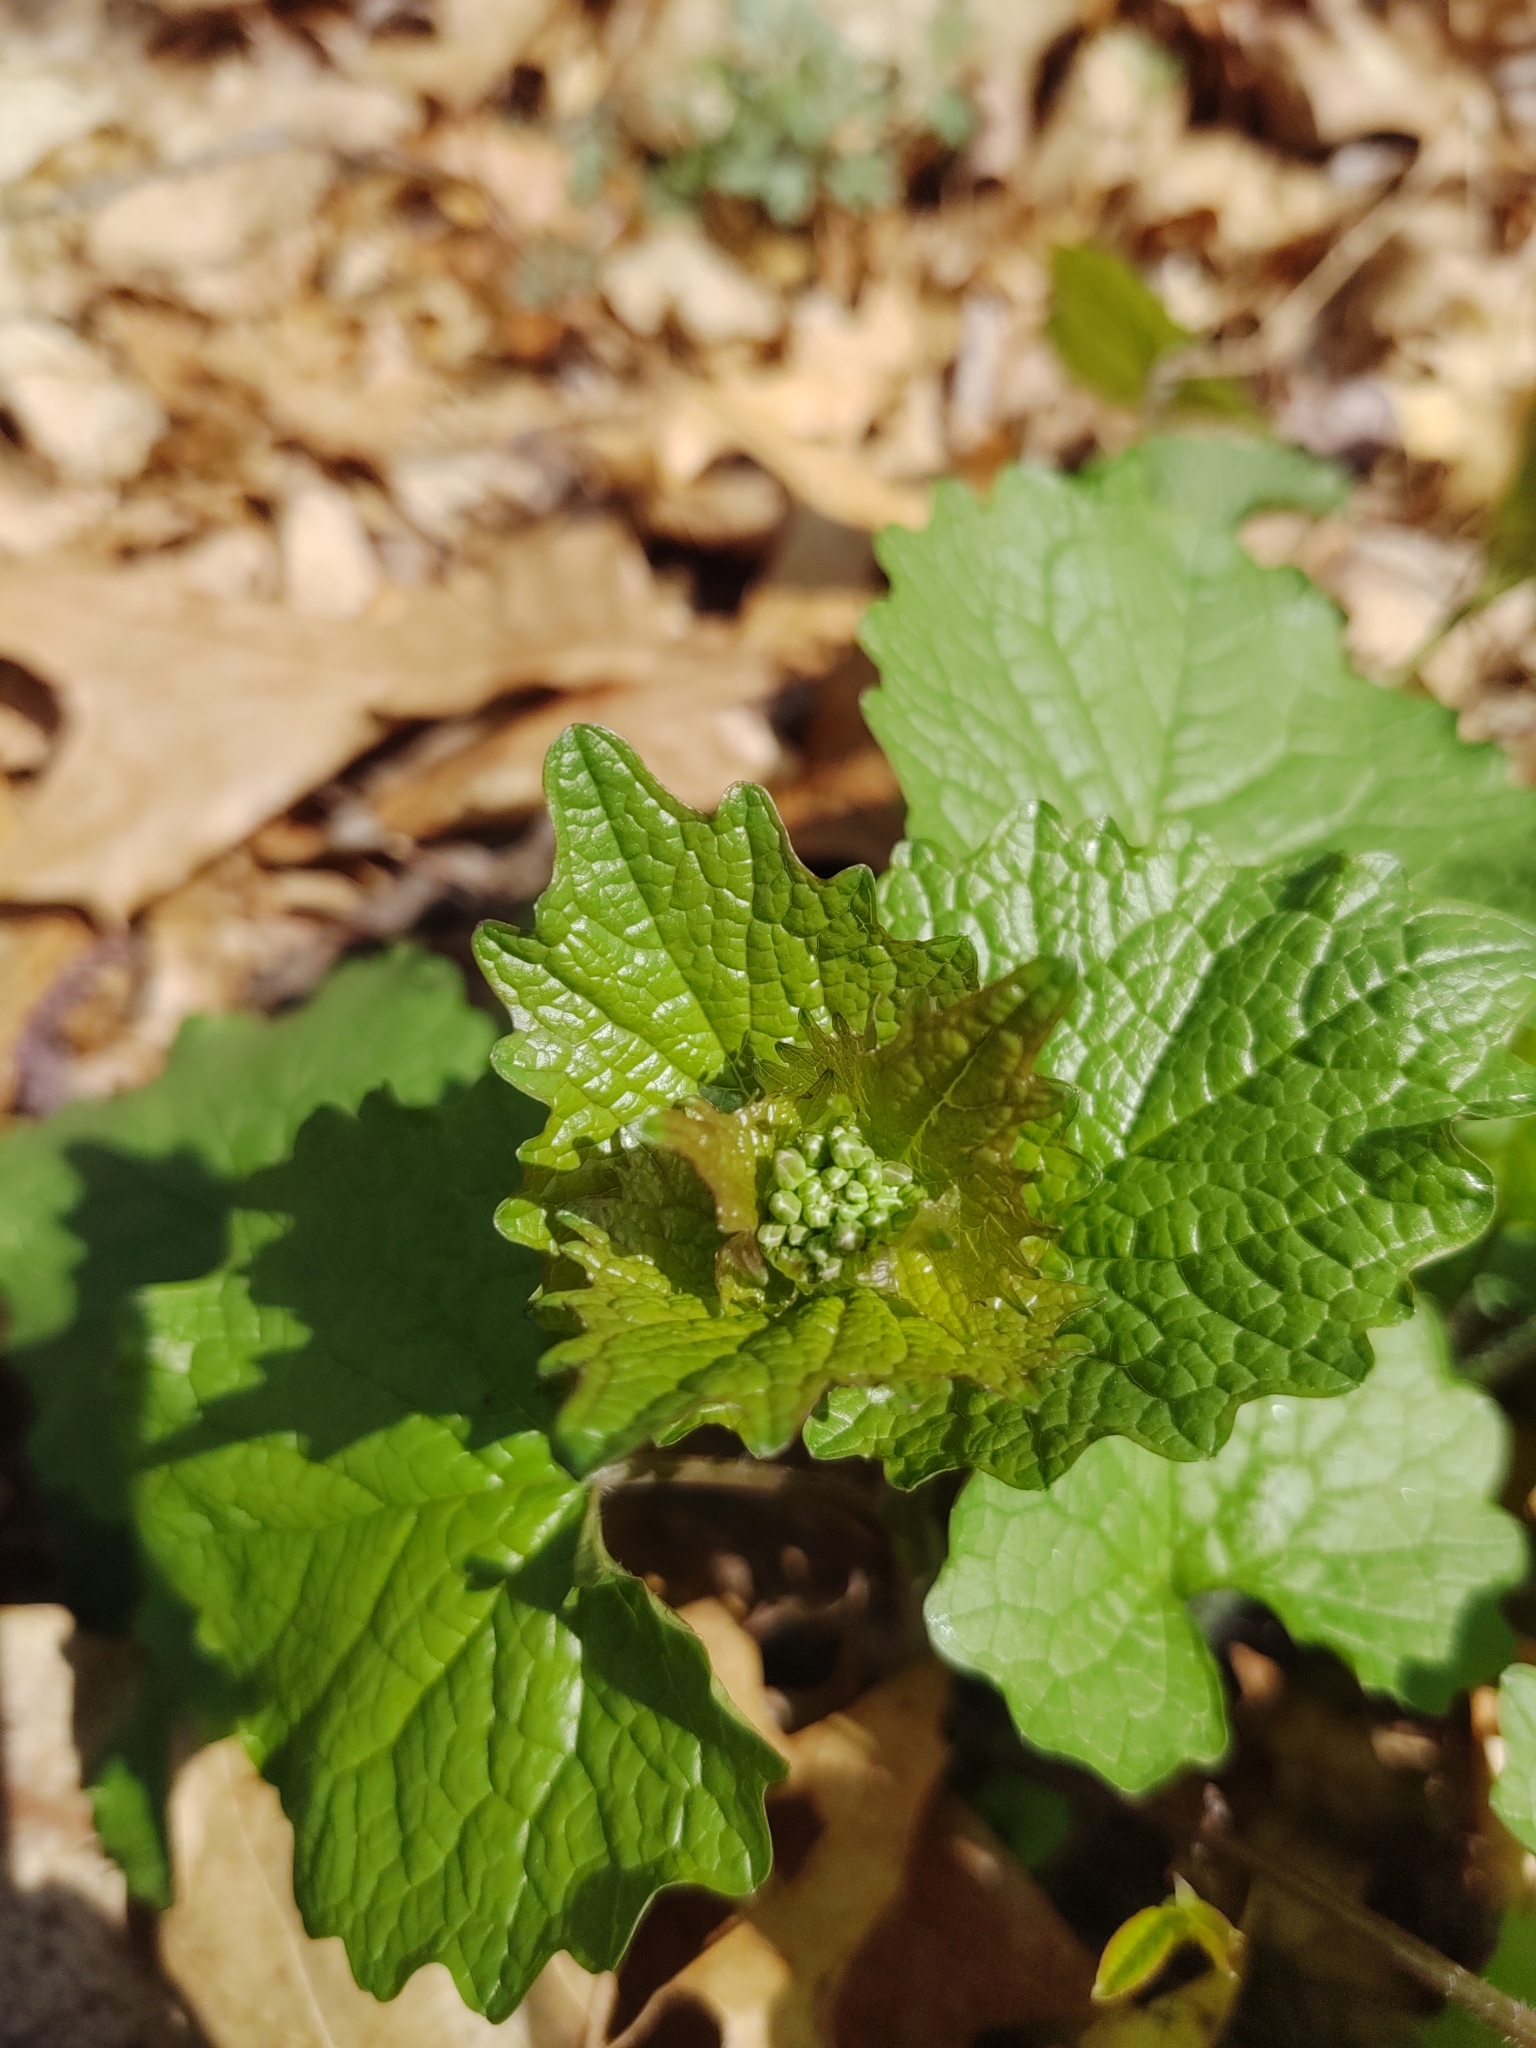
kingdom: Plantae
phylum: Tracheophyta
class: Magnoliopsida
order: Brassicales
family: Brassicaceae
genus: Alliaria
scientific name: Alliaria petiolata
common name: Garlic mustard
